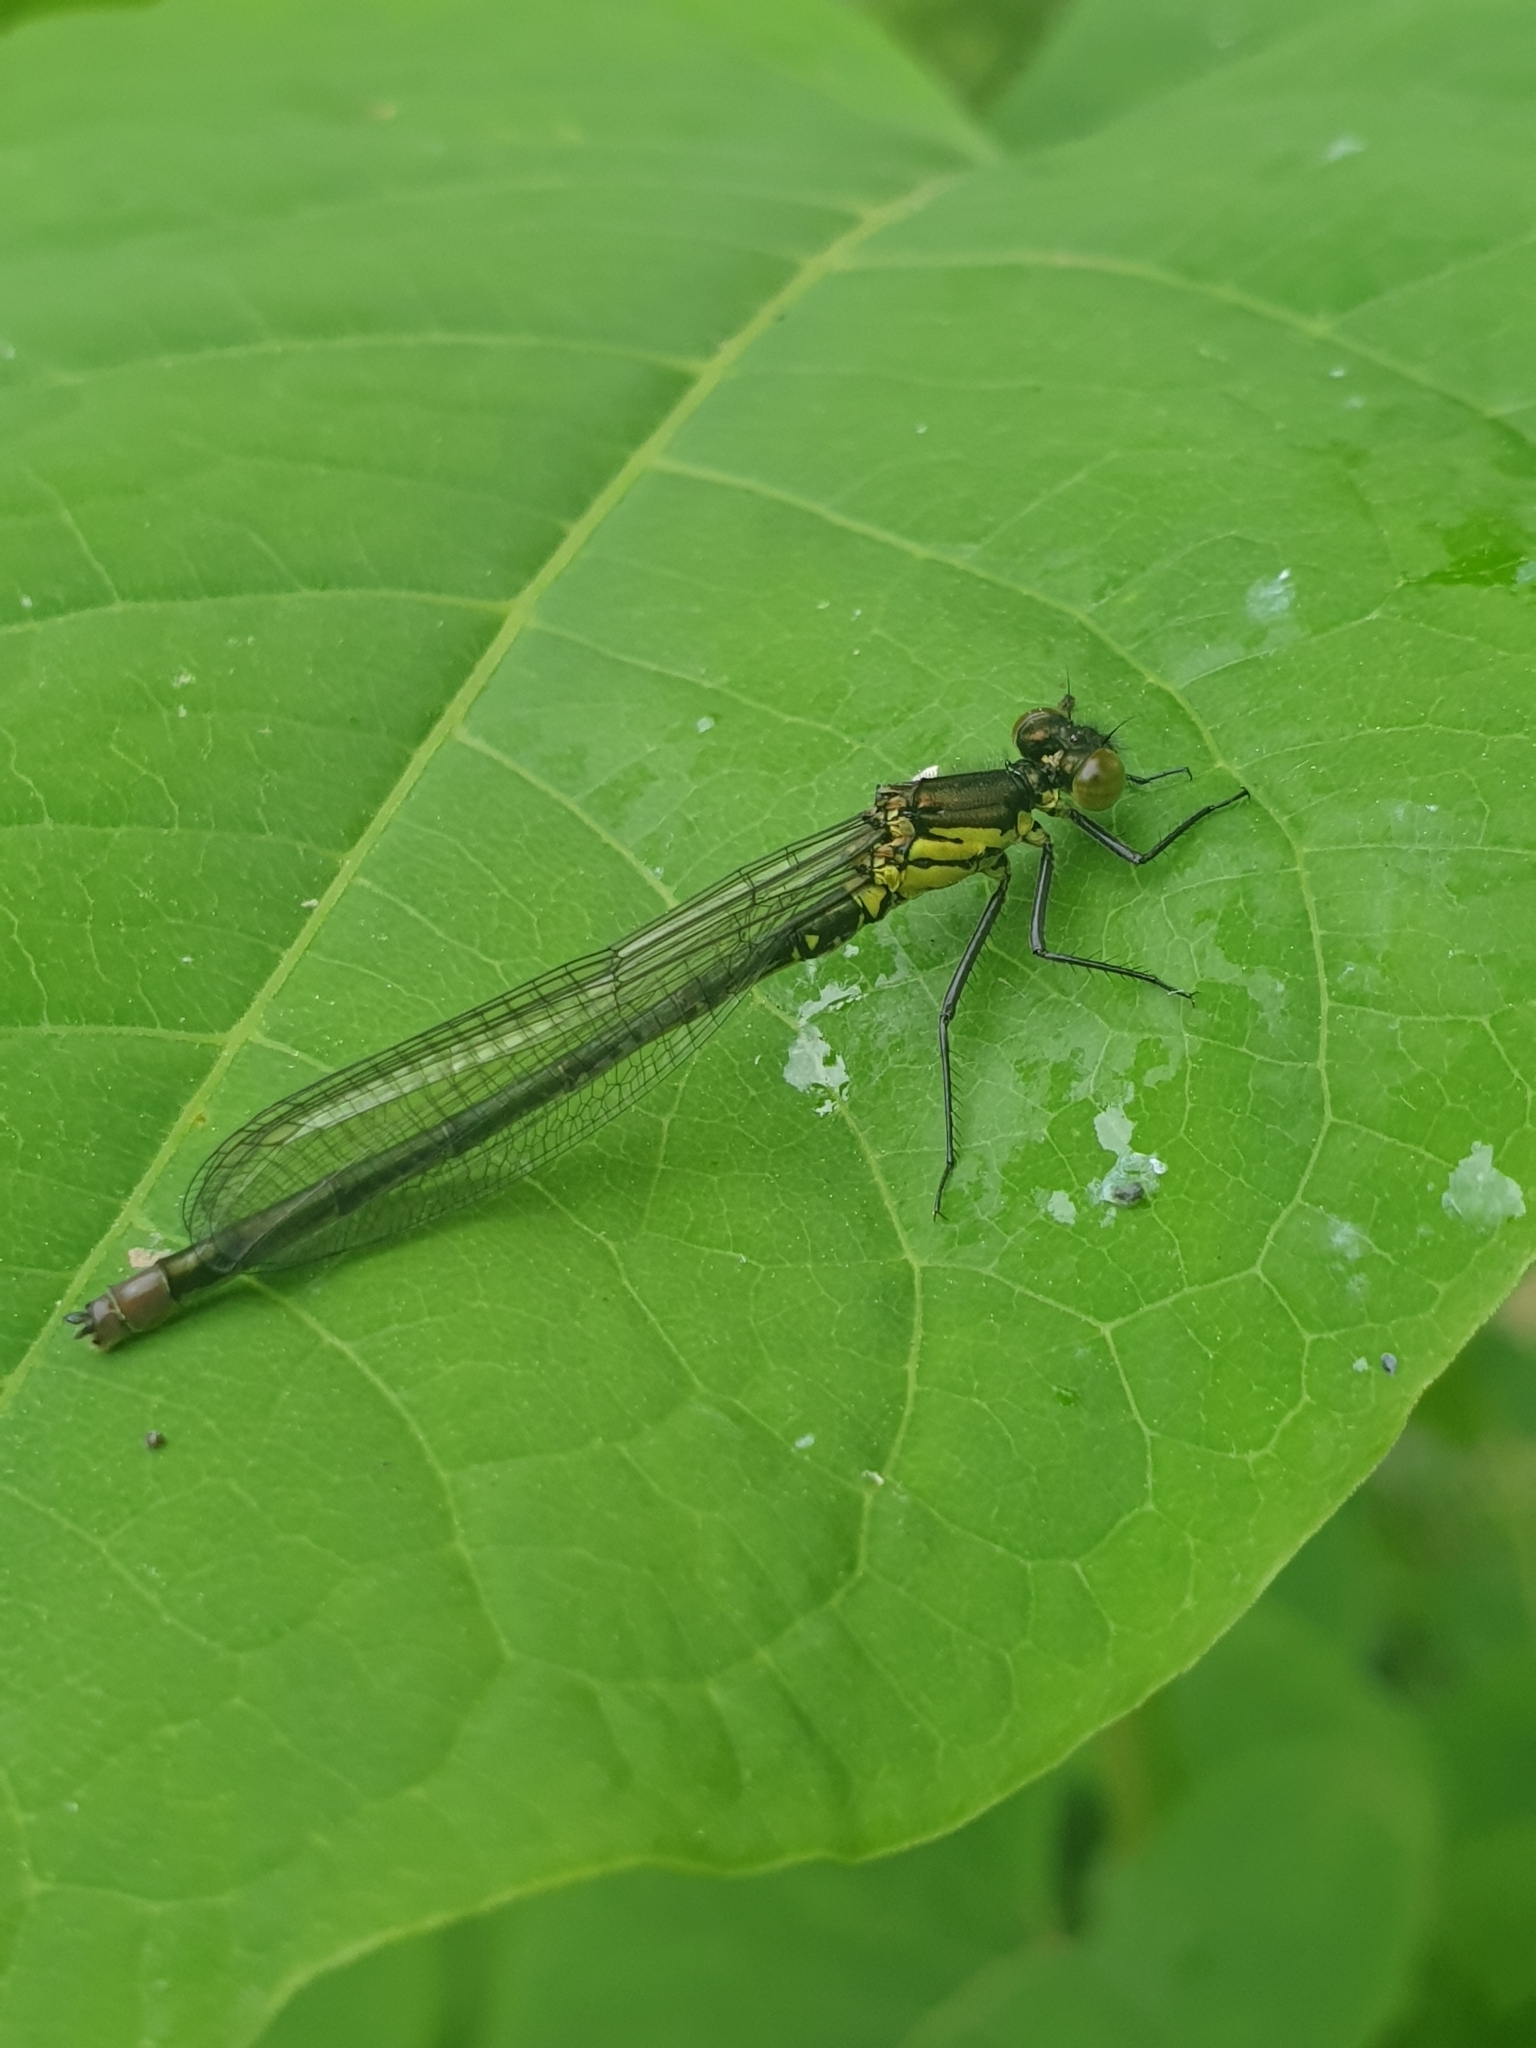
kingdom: Animalia
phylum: Arthropoda
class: Insecta
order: Odonata
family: Coenagrionidae
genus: Erythromma
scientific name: Erythromma najas
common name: Red-eyed damselfly
